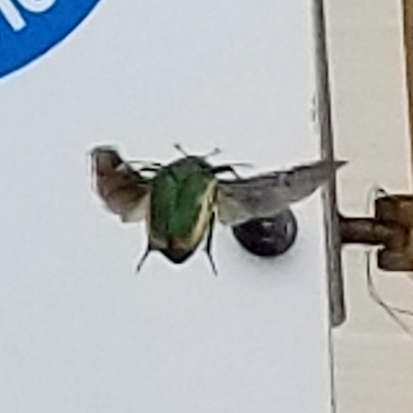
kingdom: Animalia
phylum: Arthropoda
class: Insecta
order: Coleoptera
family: Scarabaeidae
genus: Cotinis
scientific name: Cotinis mutabilis
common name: Figeater beetle
